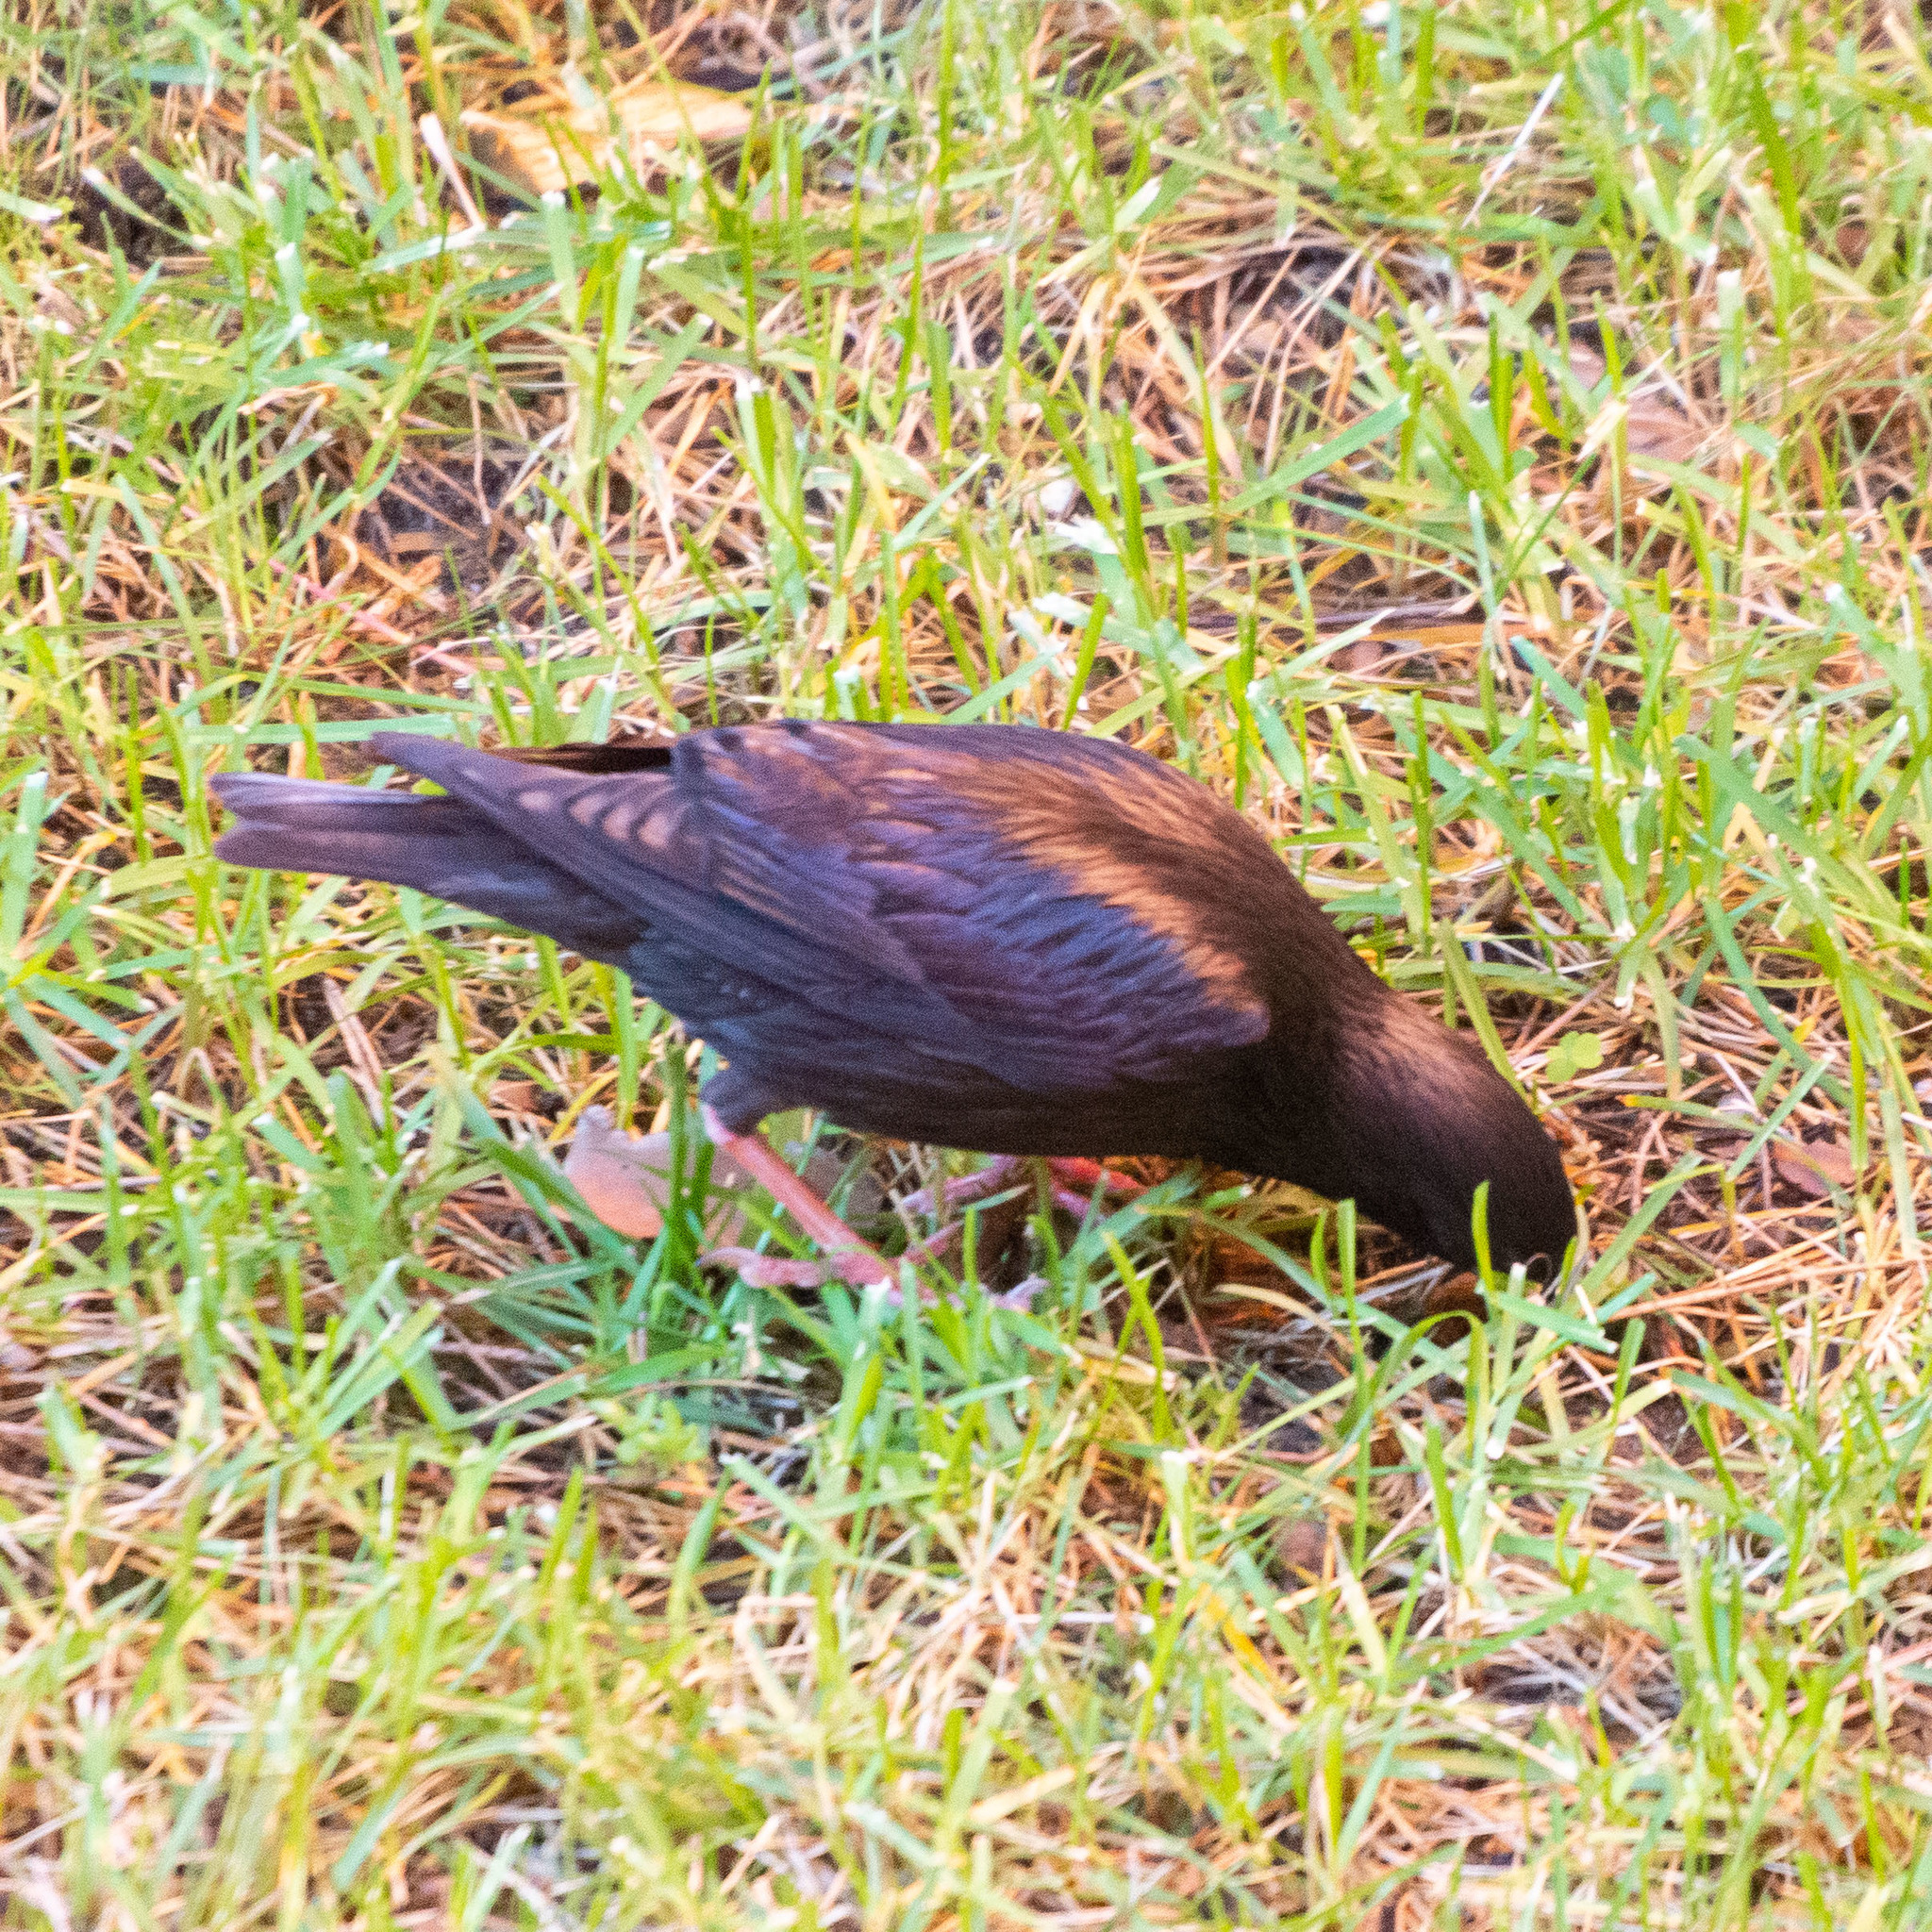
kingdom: Animalia
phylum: Chordata
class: Aves
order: Passeriformes
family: Sturnidae
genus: Sturnus
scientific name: Sturnus unicolor
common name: Spotless starling
